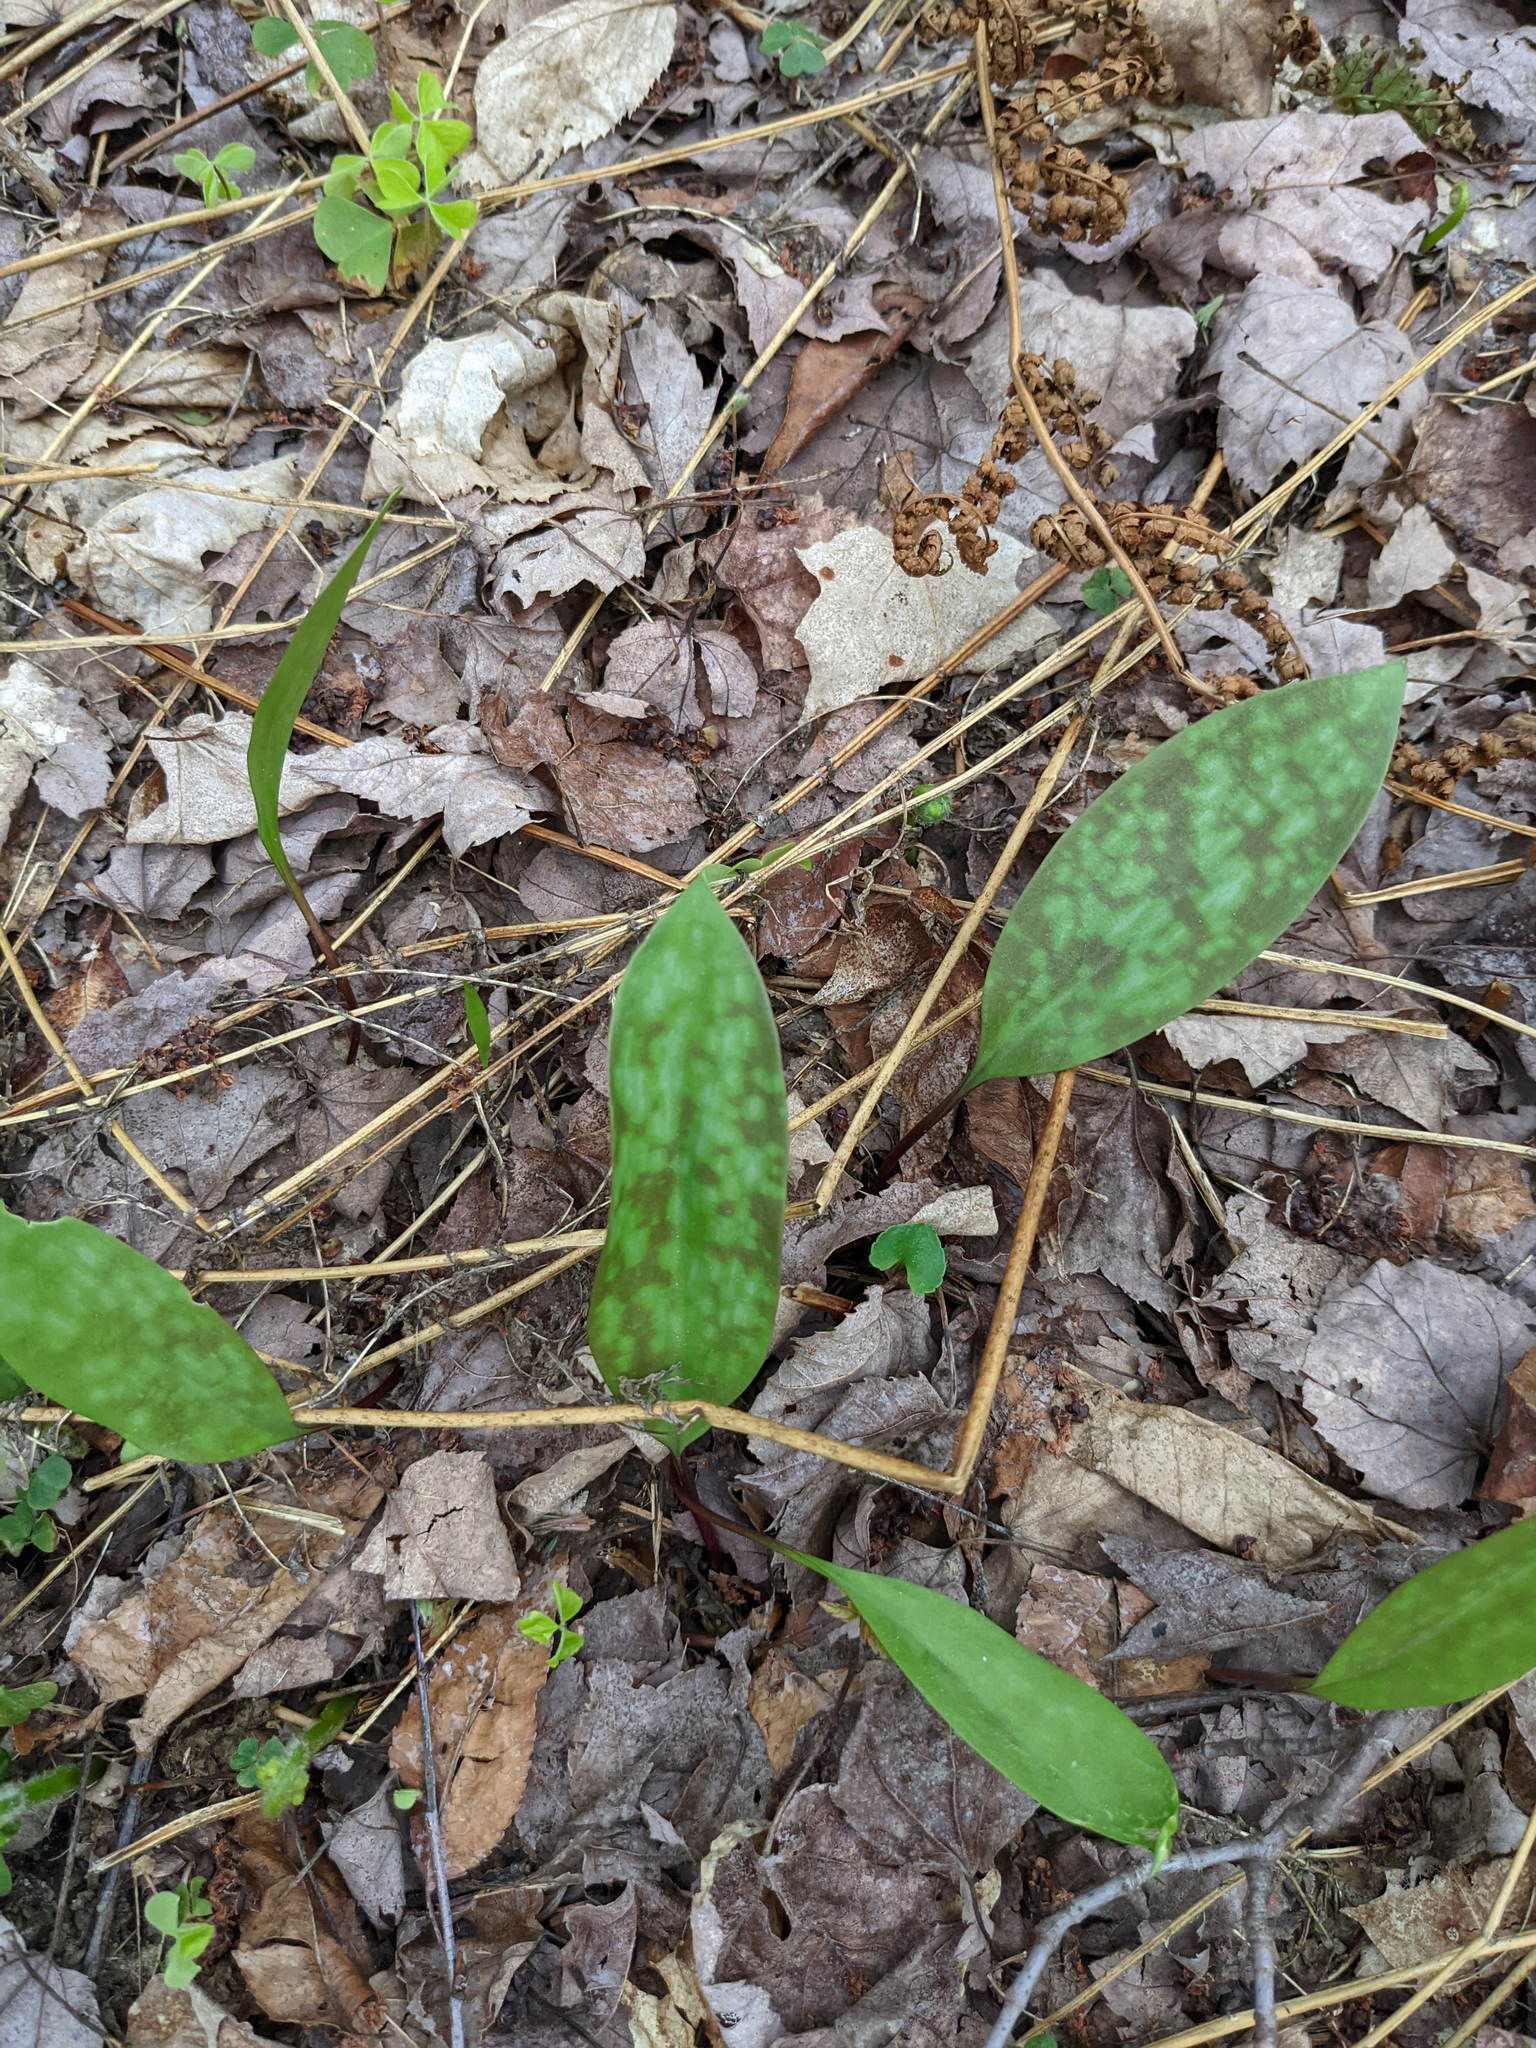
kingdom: Plantae
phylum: Tracheophyta
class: Liliopsida
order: Liliales
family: Liliaceae
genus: Erythronium
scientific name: Erythronium americanum
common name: Yellow adder's-tongue
